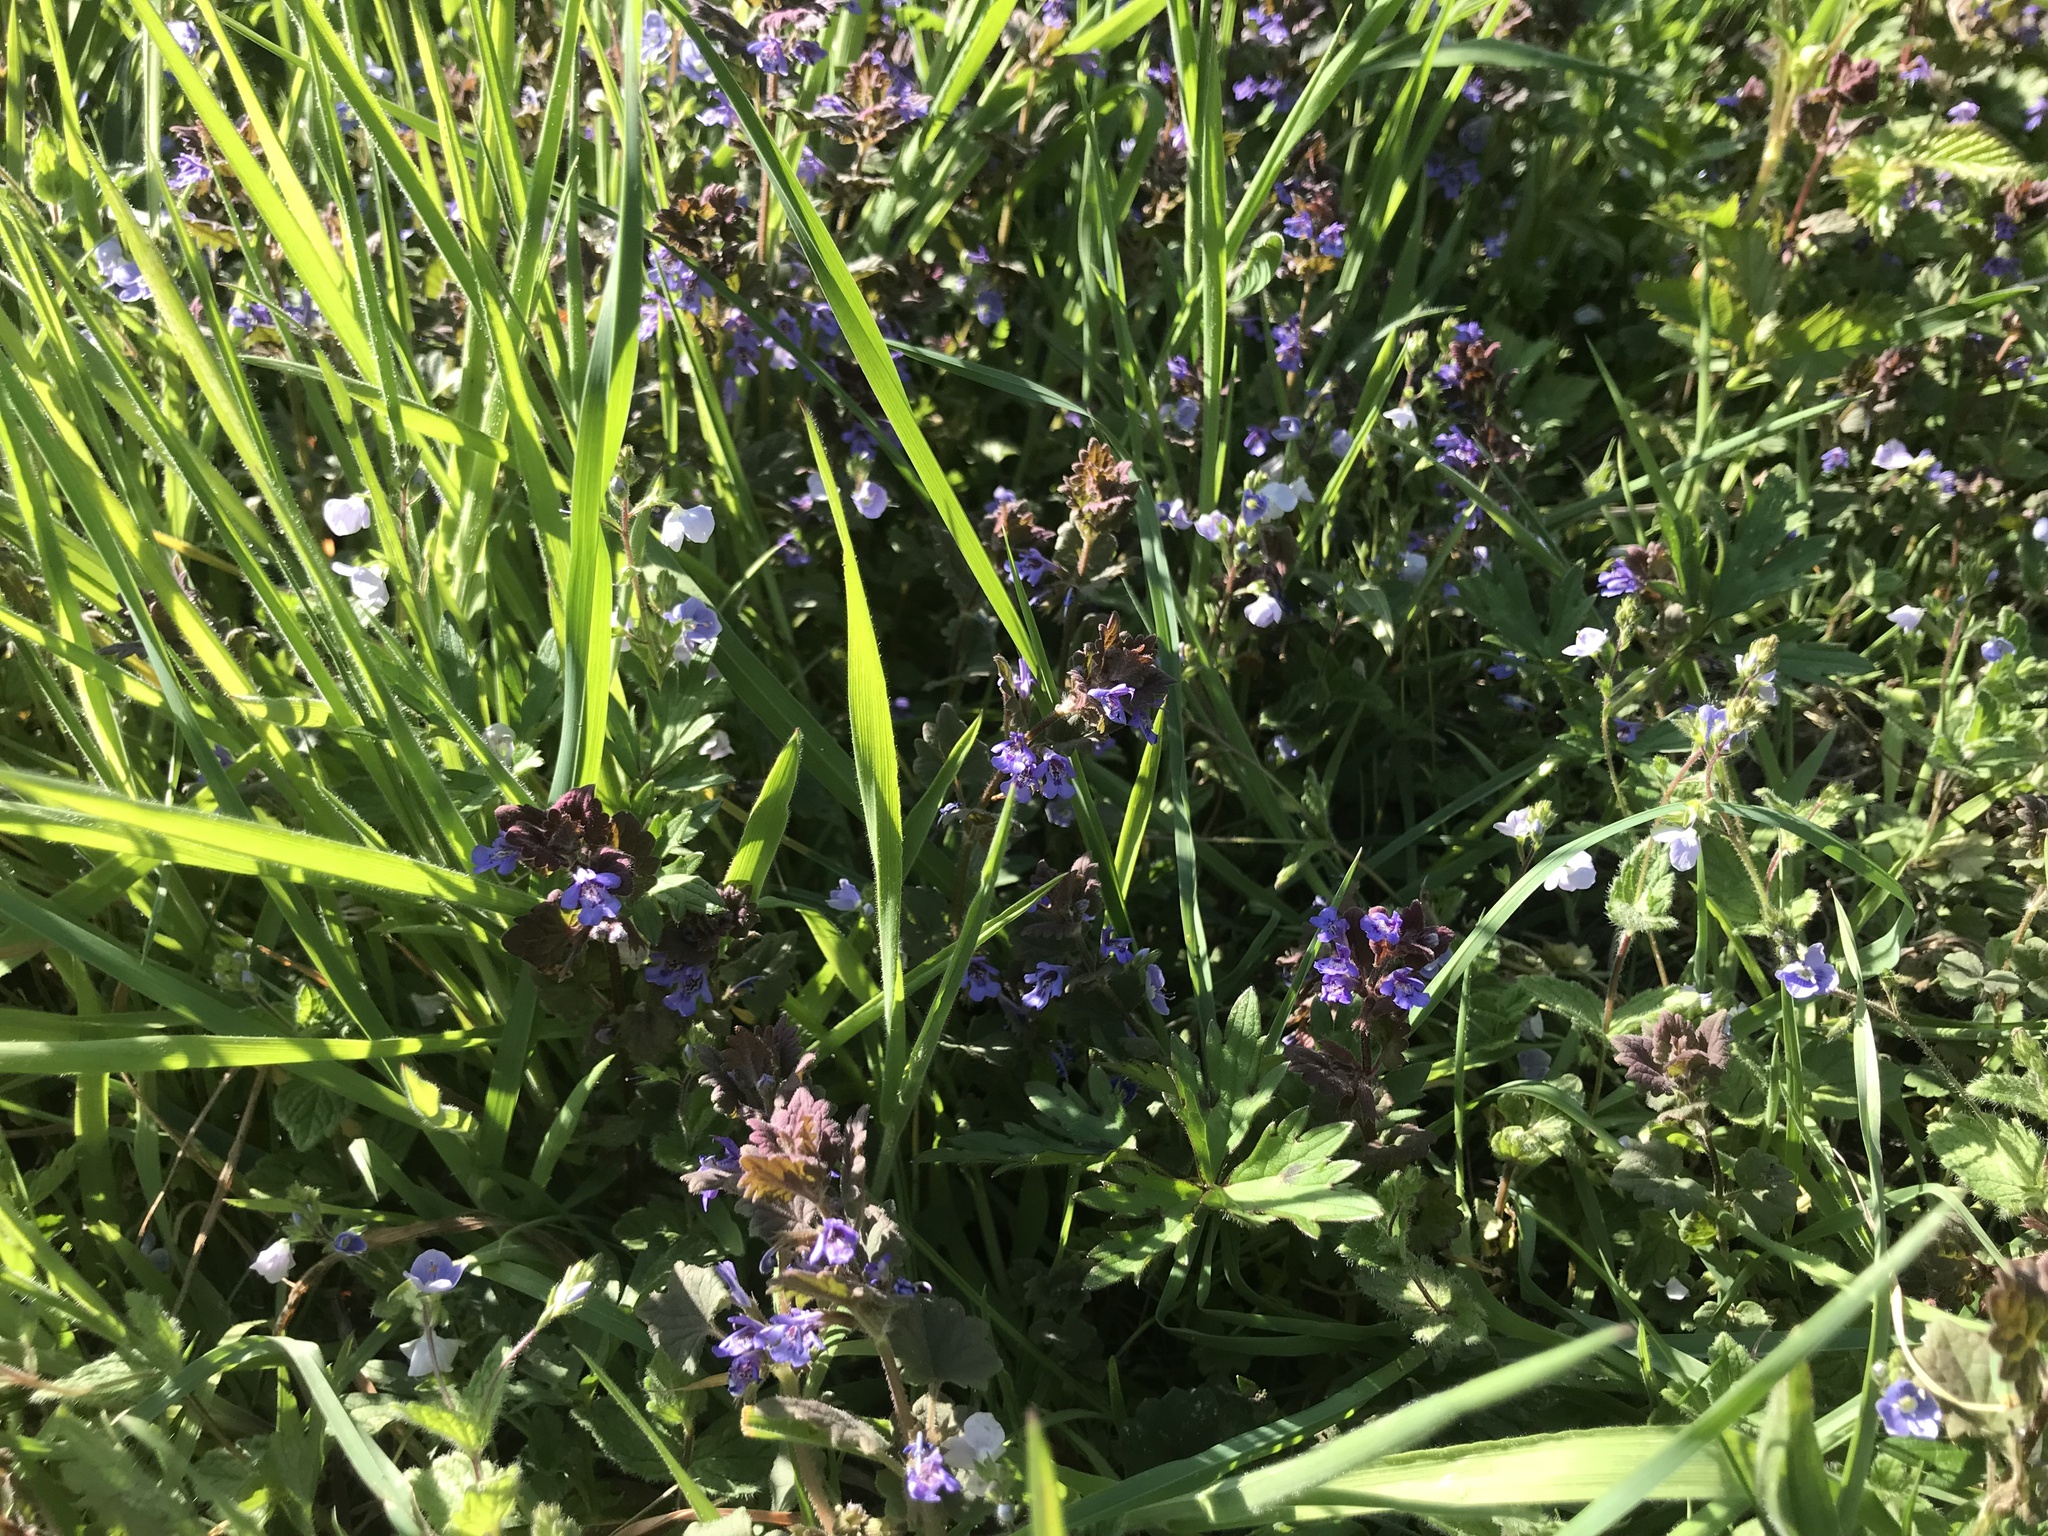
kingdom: Plantae
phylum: Tracheophyta
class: Magnoliopsida
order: Lamiales
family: Lamiaceae
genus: Glechoma
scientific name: Glechoma hederacea
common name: Ground ivy
